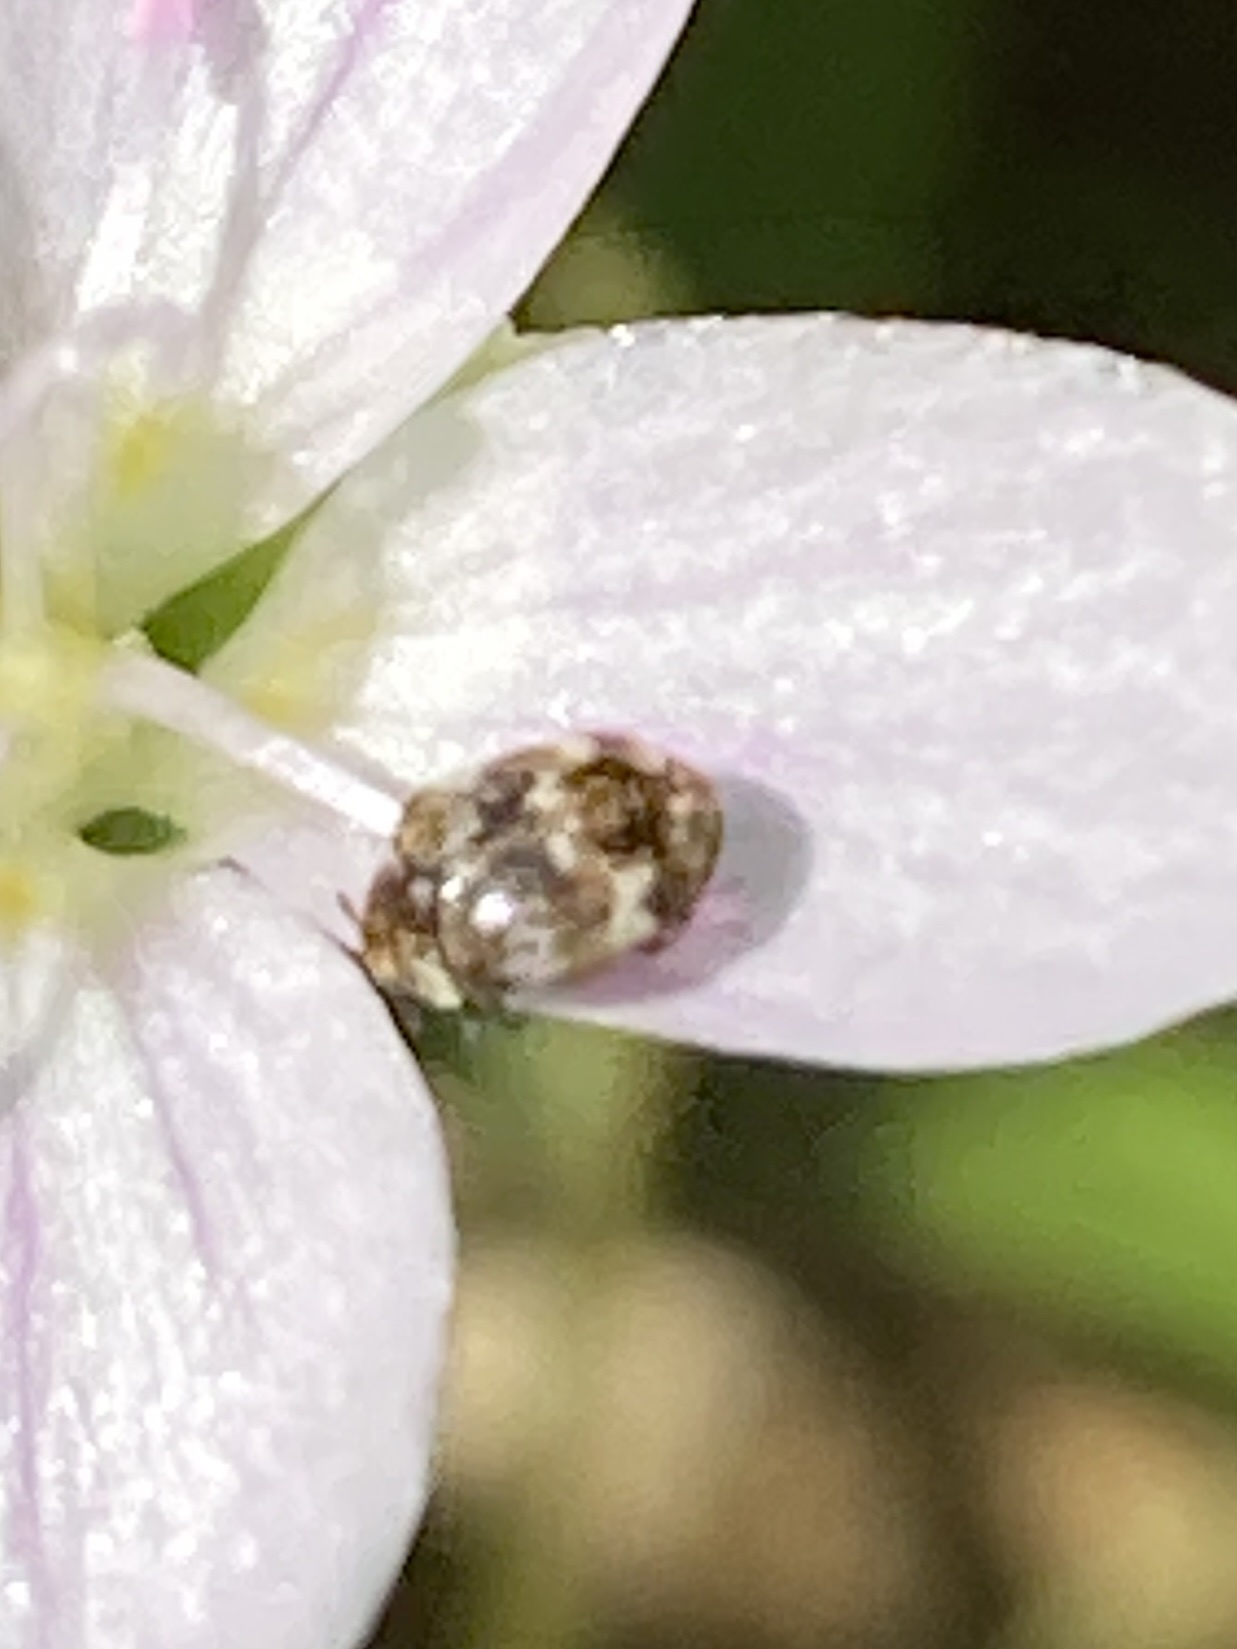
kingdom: Animalia
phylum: Arthropoda
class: Insecta
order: Coleoptera
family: Dermestidae
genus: Anthrenus
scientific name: Anthrenus verbasci
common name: Varied carpet beetle
